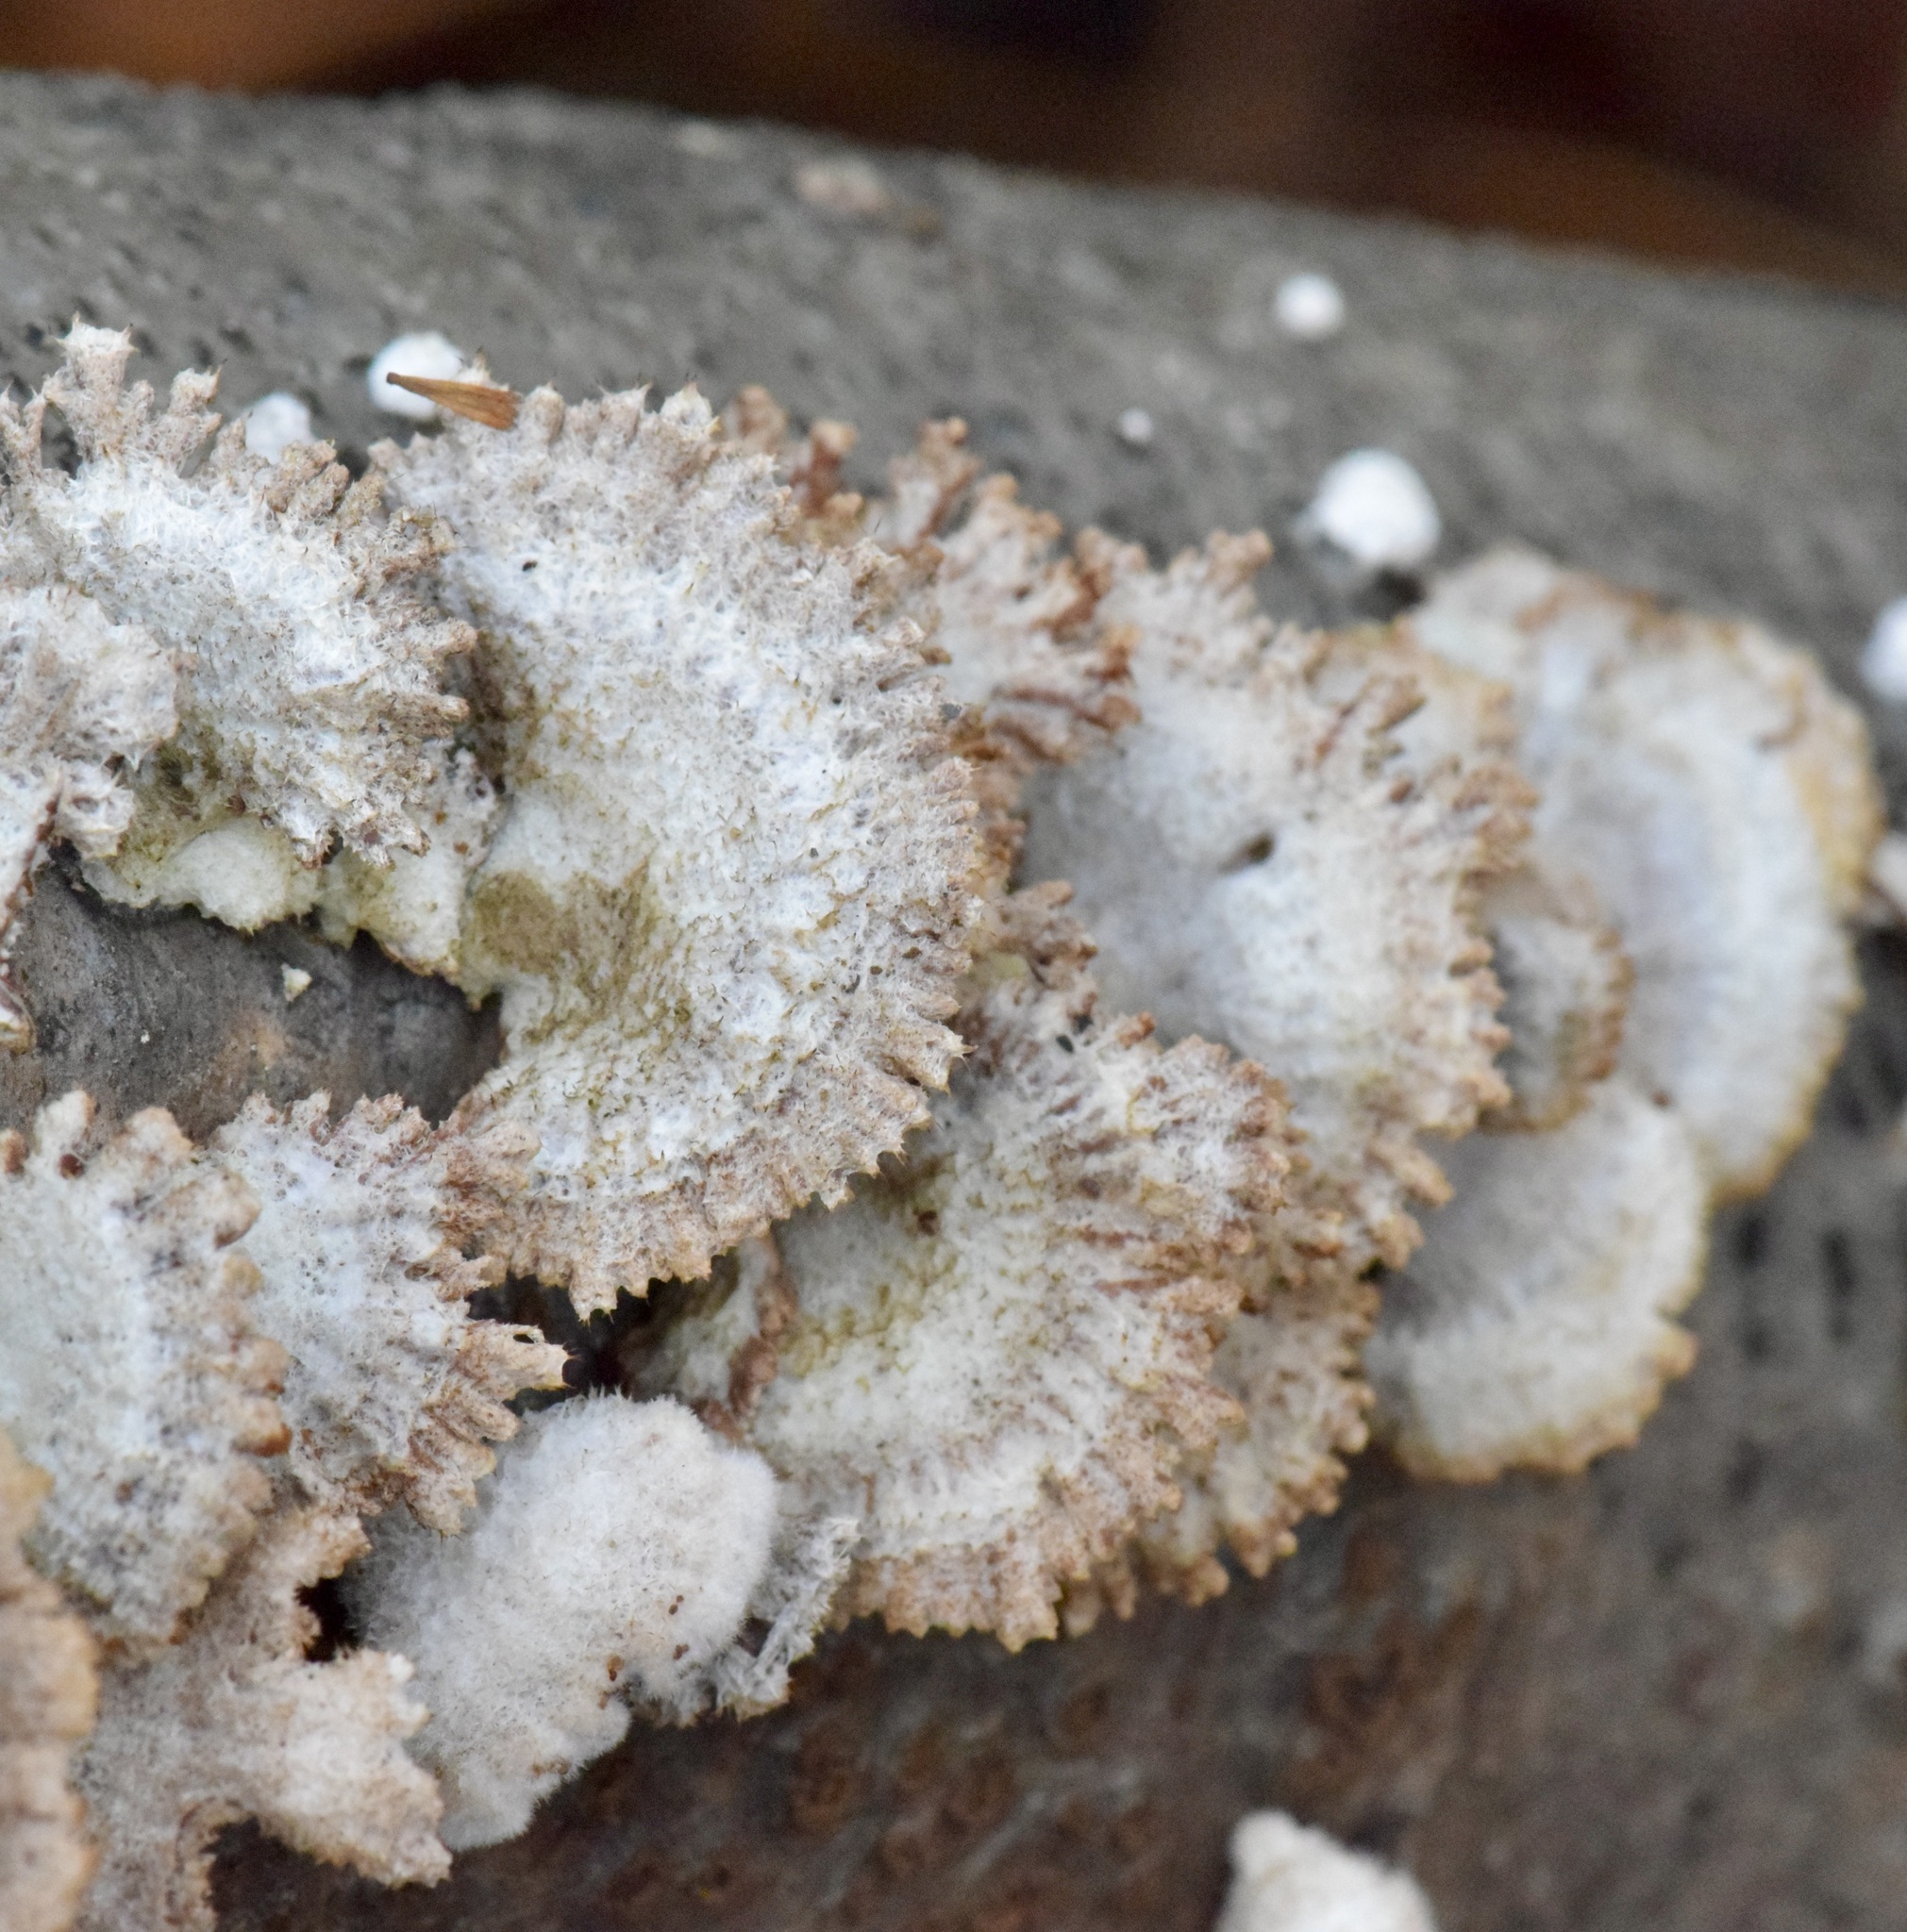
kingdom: Fungi
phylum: Basidiomycota
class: Agaricomycetes
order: Agaricales
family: Schizophyllaceae
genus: Schizophyllum
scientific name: Schizophyllum commune
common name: Common porecrust
